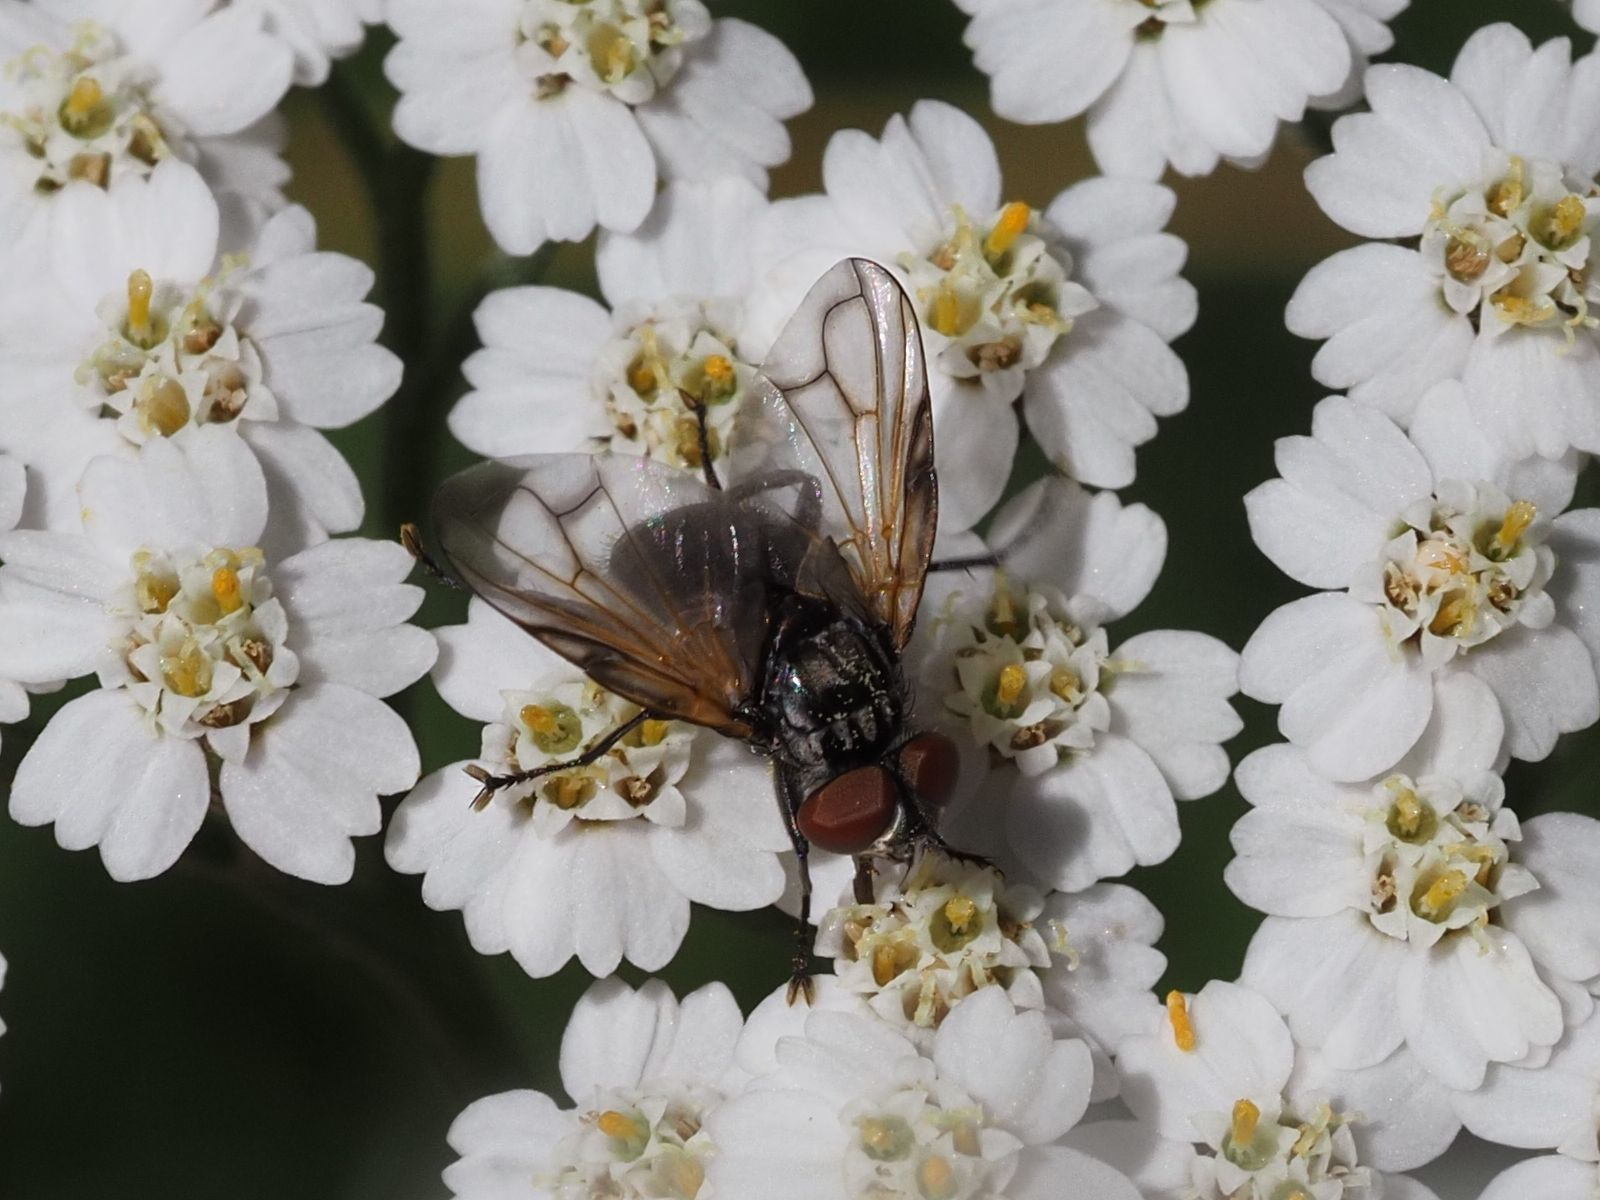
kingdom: Animalia
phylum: Arthropoda
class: Insecta
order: Diptera
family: Tachinidae
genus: Phasia
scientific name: Phasia obesa
